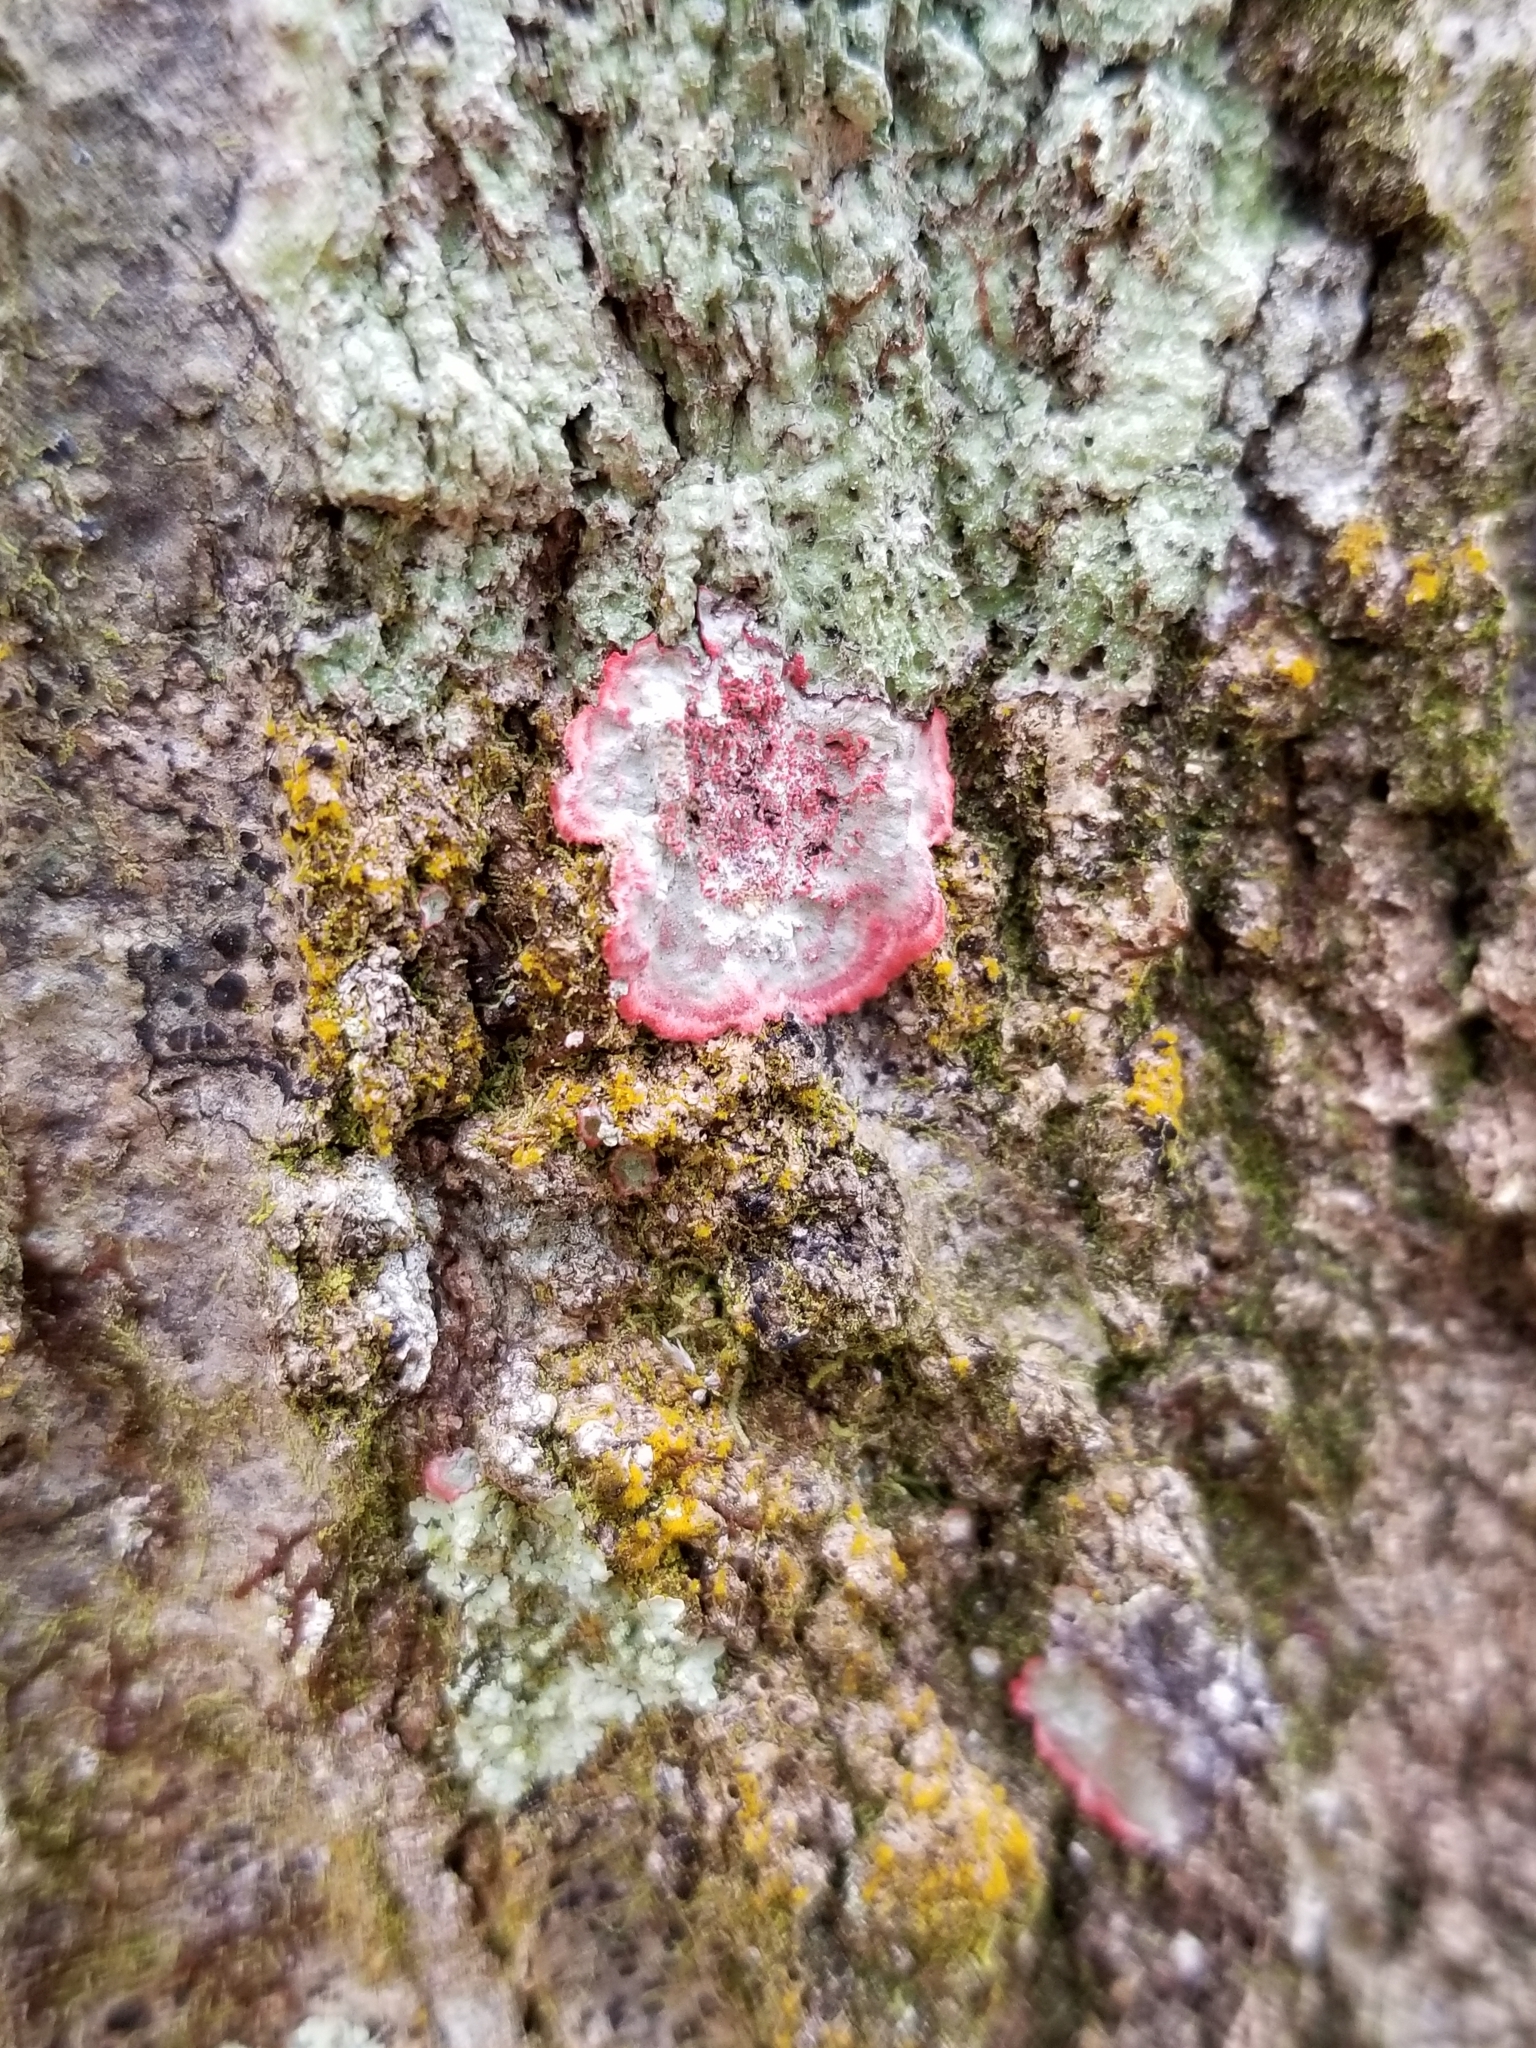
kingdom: Fungi
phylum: Ascomycota
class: Arthoniomycetes
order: Arthoniales
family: Arthoniaceae
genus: Herpothallon
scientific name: Herpothallon rubrocinctum
